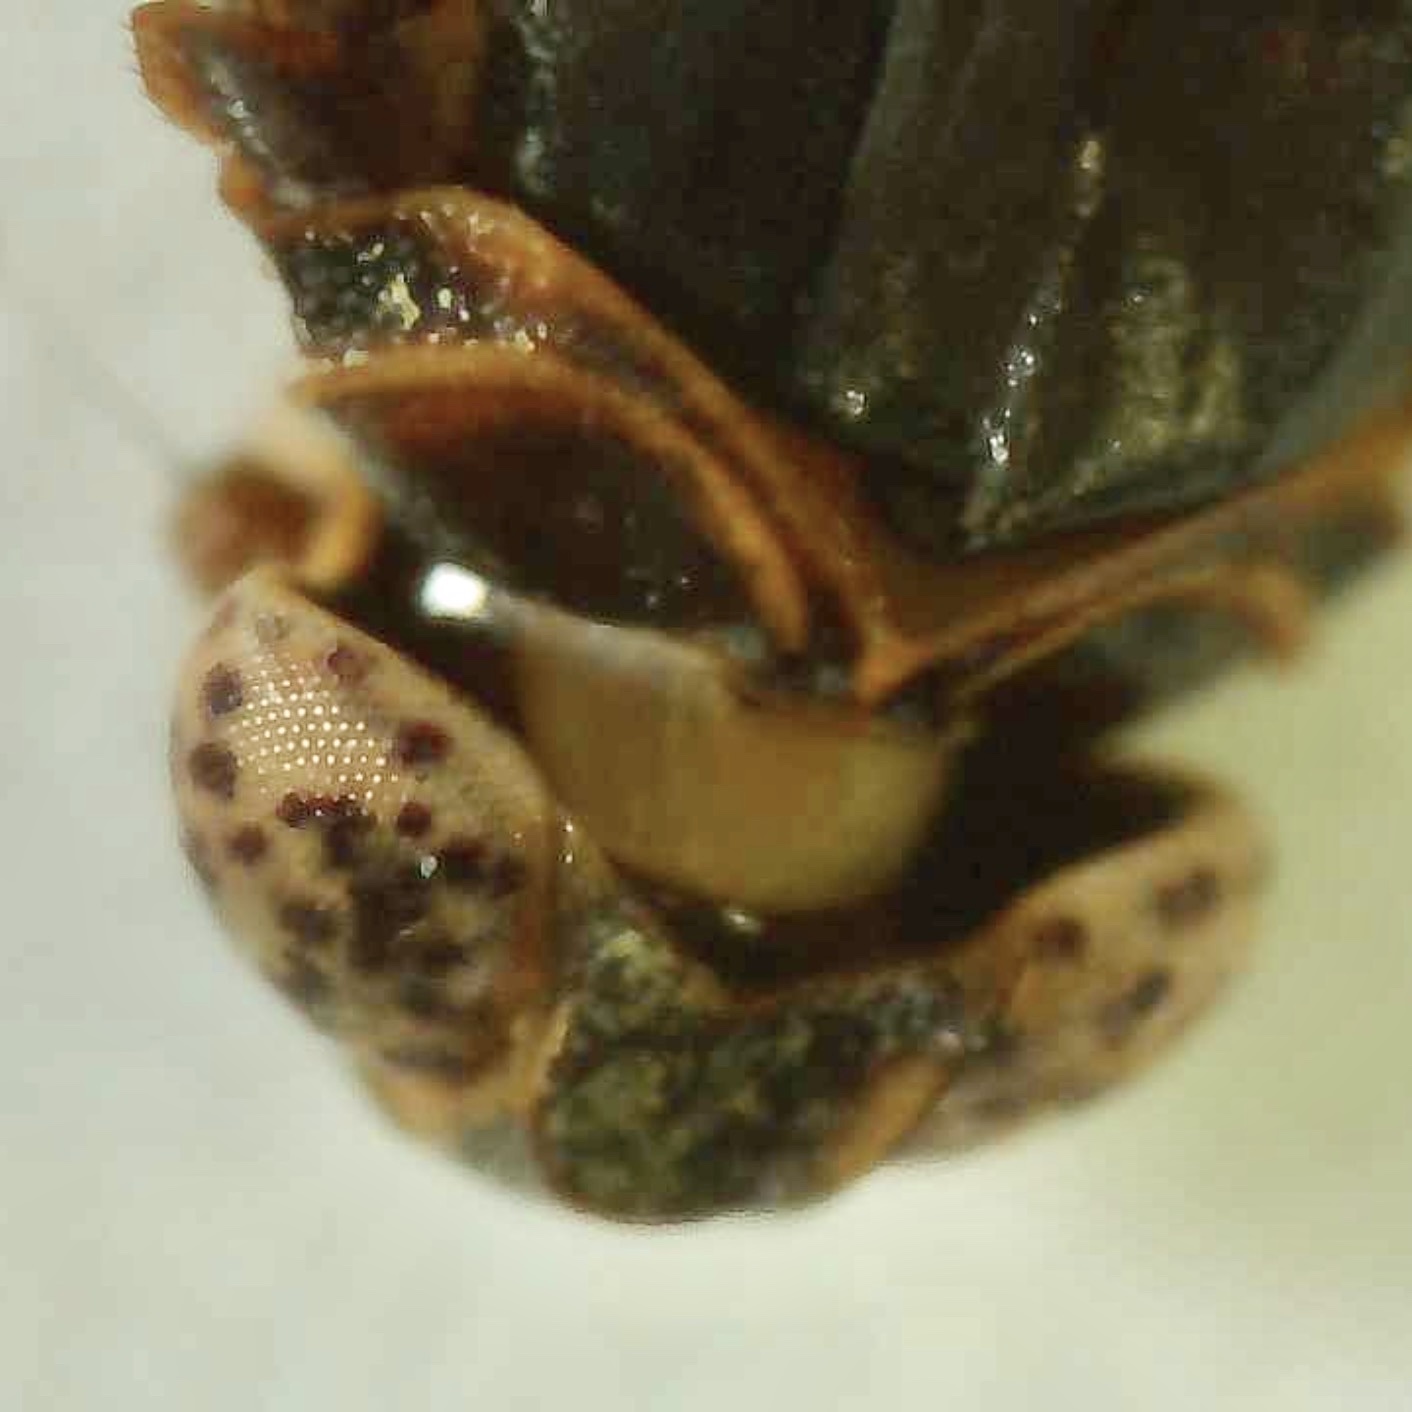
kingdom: Animalia
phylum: Arthropoda
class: Insecta
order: Hemiptera
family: Cixiidae
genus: Melanoliarus
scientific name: Melanoliarus aridus
